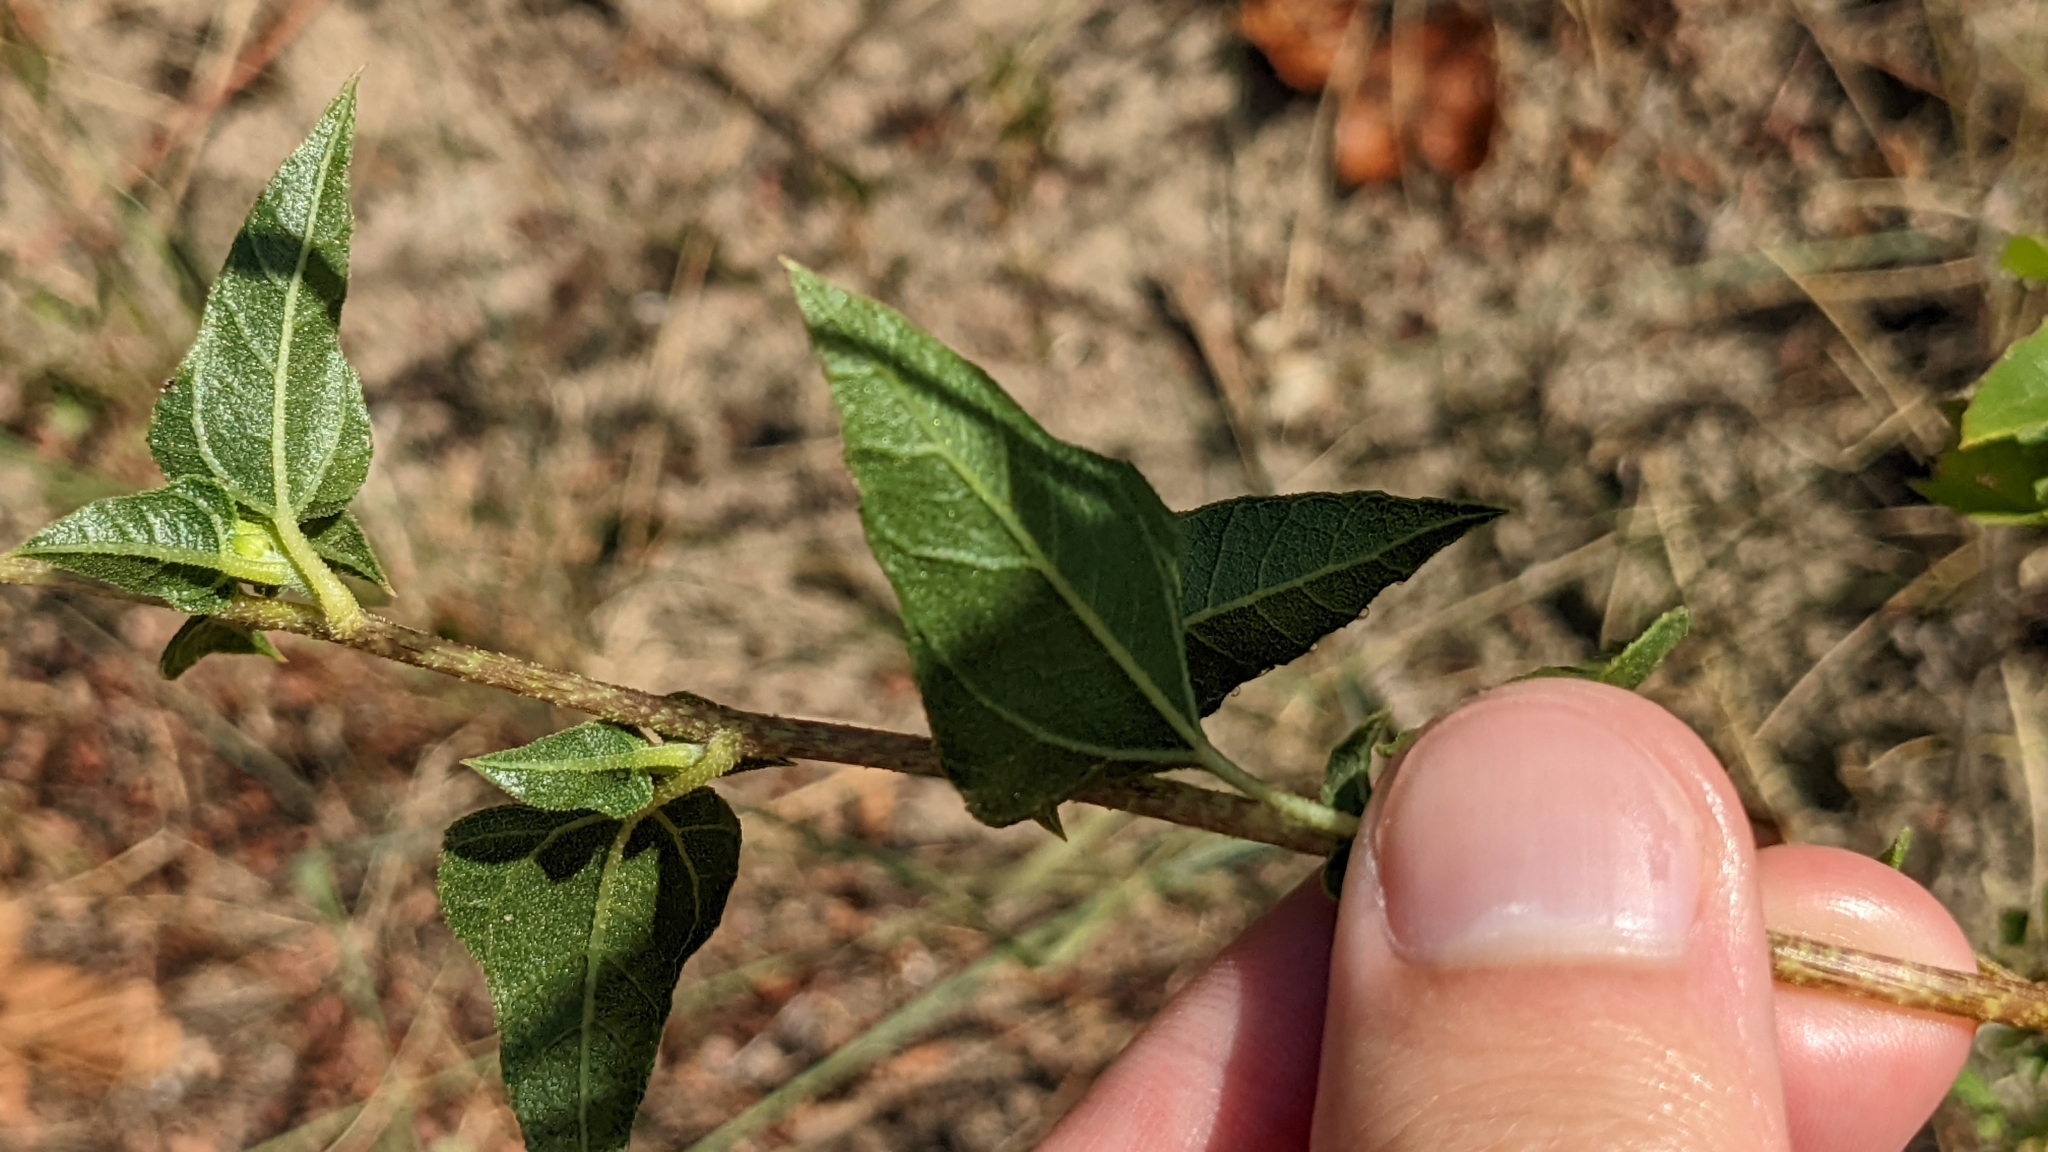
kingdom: Plantae
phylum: Tracheophyta
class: Magnoliopsida
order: Asterales
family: Asteraceae
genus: Helianthus
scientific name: Helianthus debilis
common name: Weak sunflower
